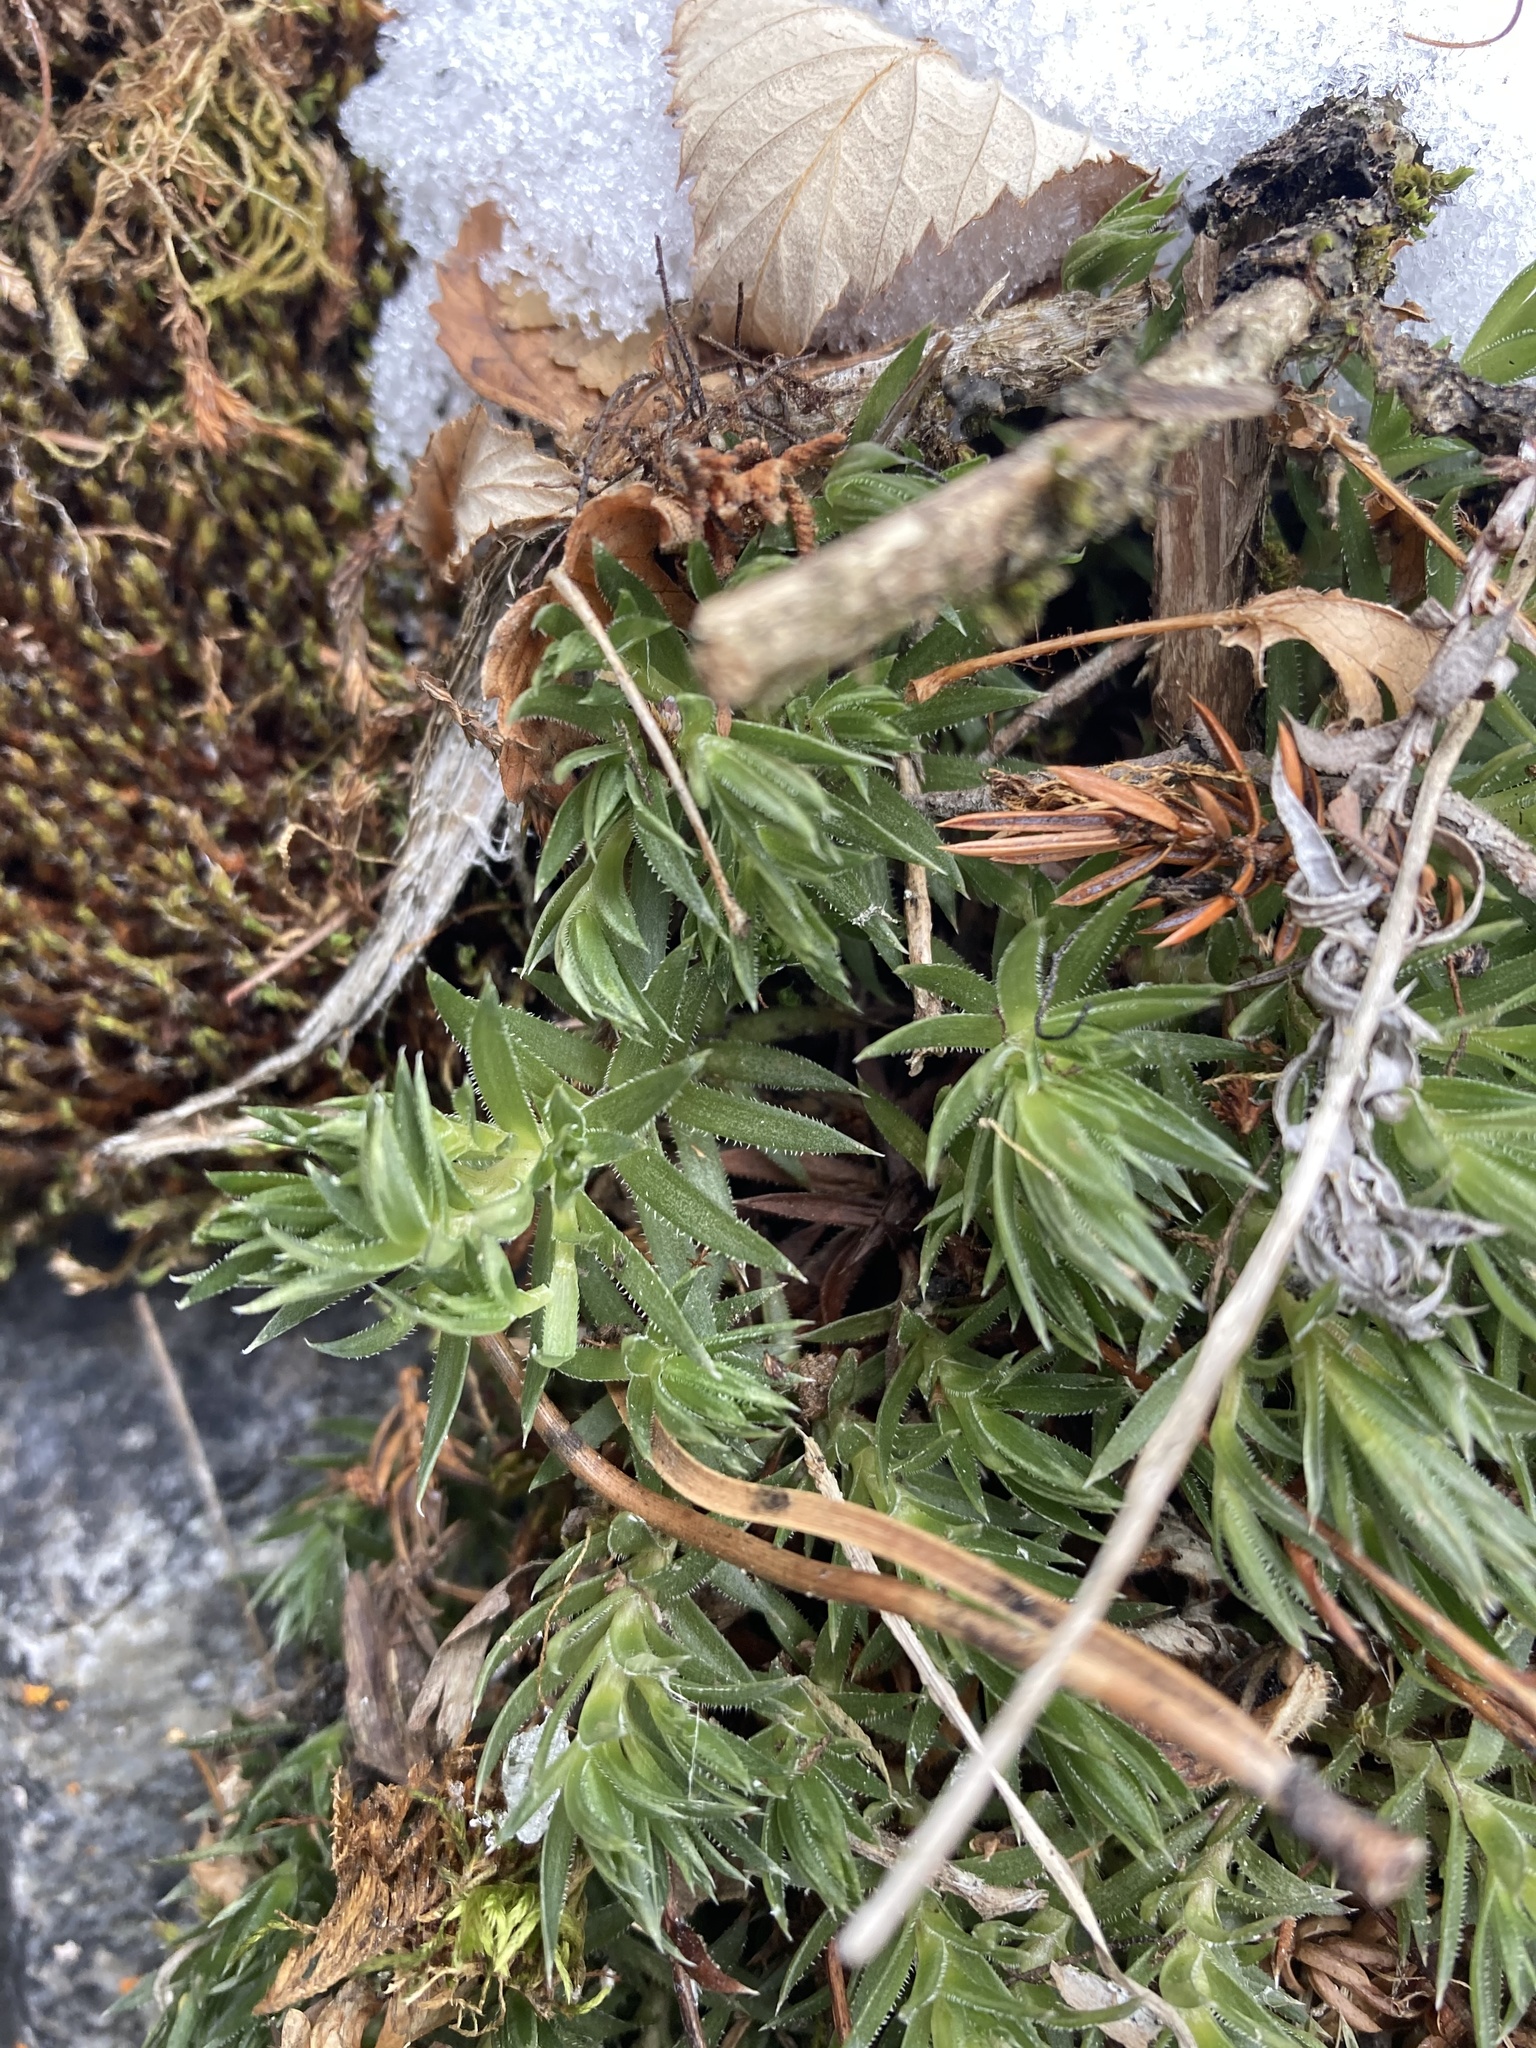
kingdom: Plantae
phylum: Tracheophyta
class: Magnoliopsida
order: Saxifragales
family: Saxifragaceae
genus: Saxifraga
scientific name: Saxifraga bronchialis
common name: Matted saxifrage
